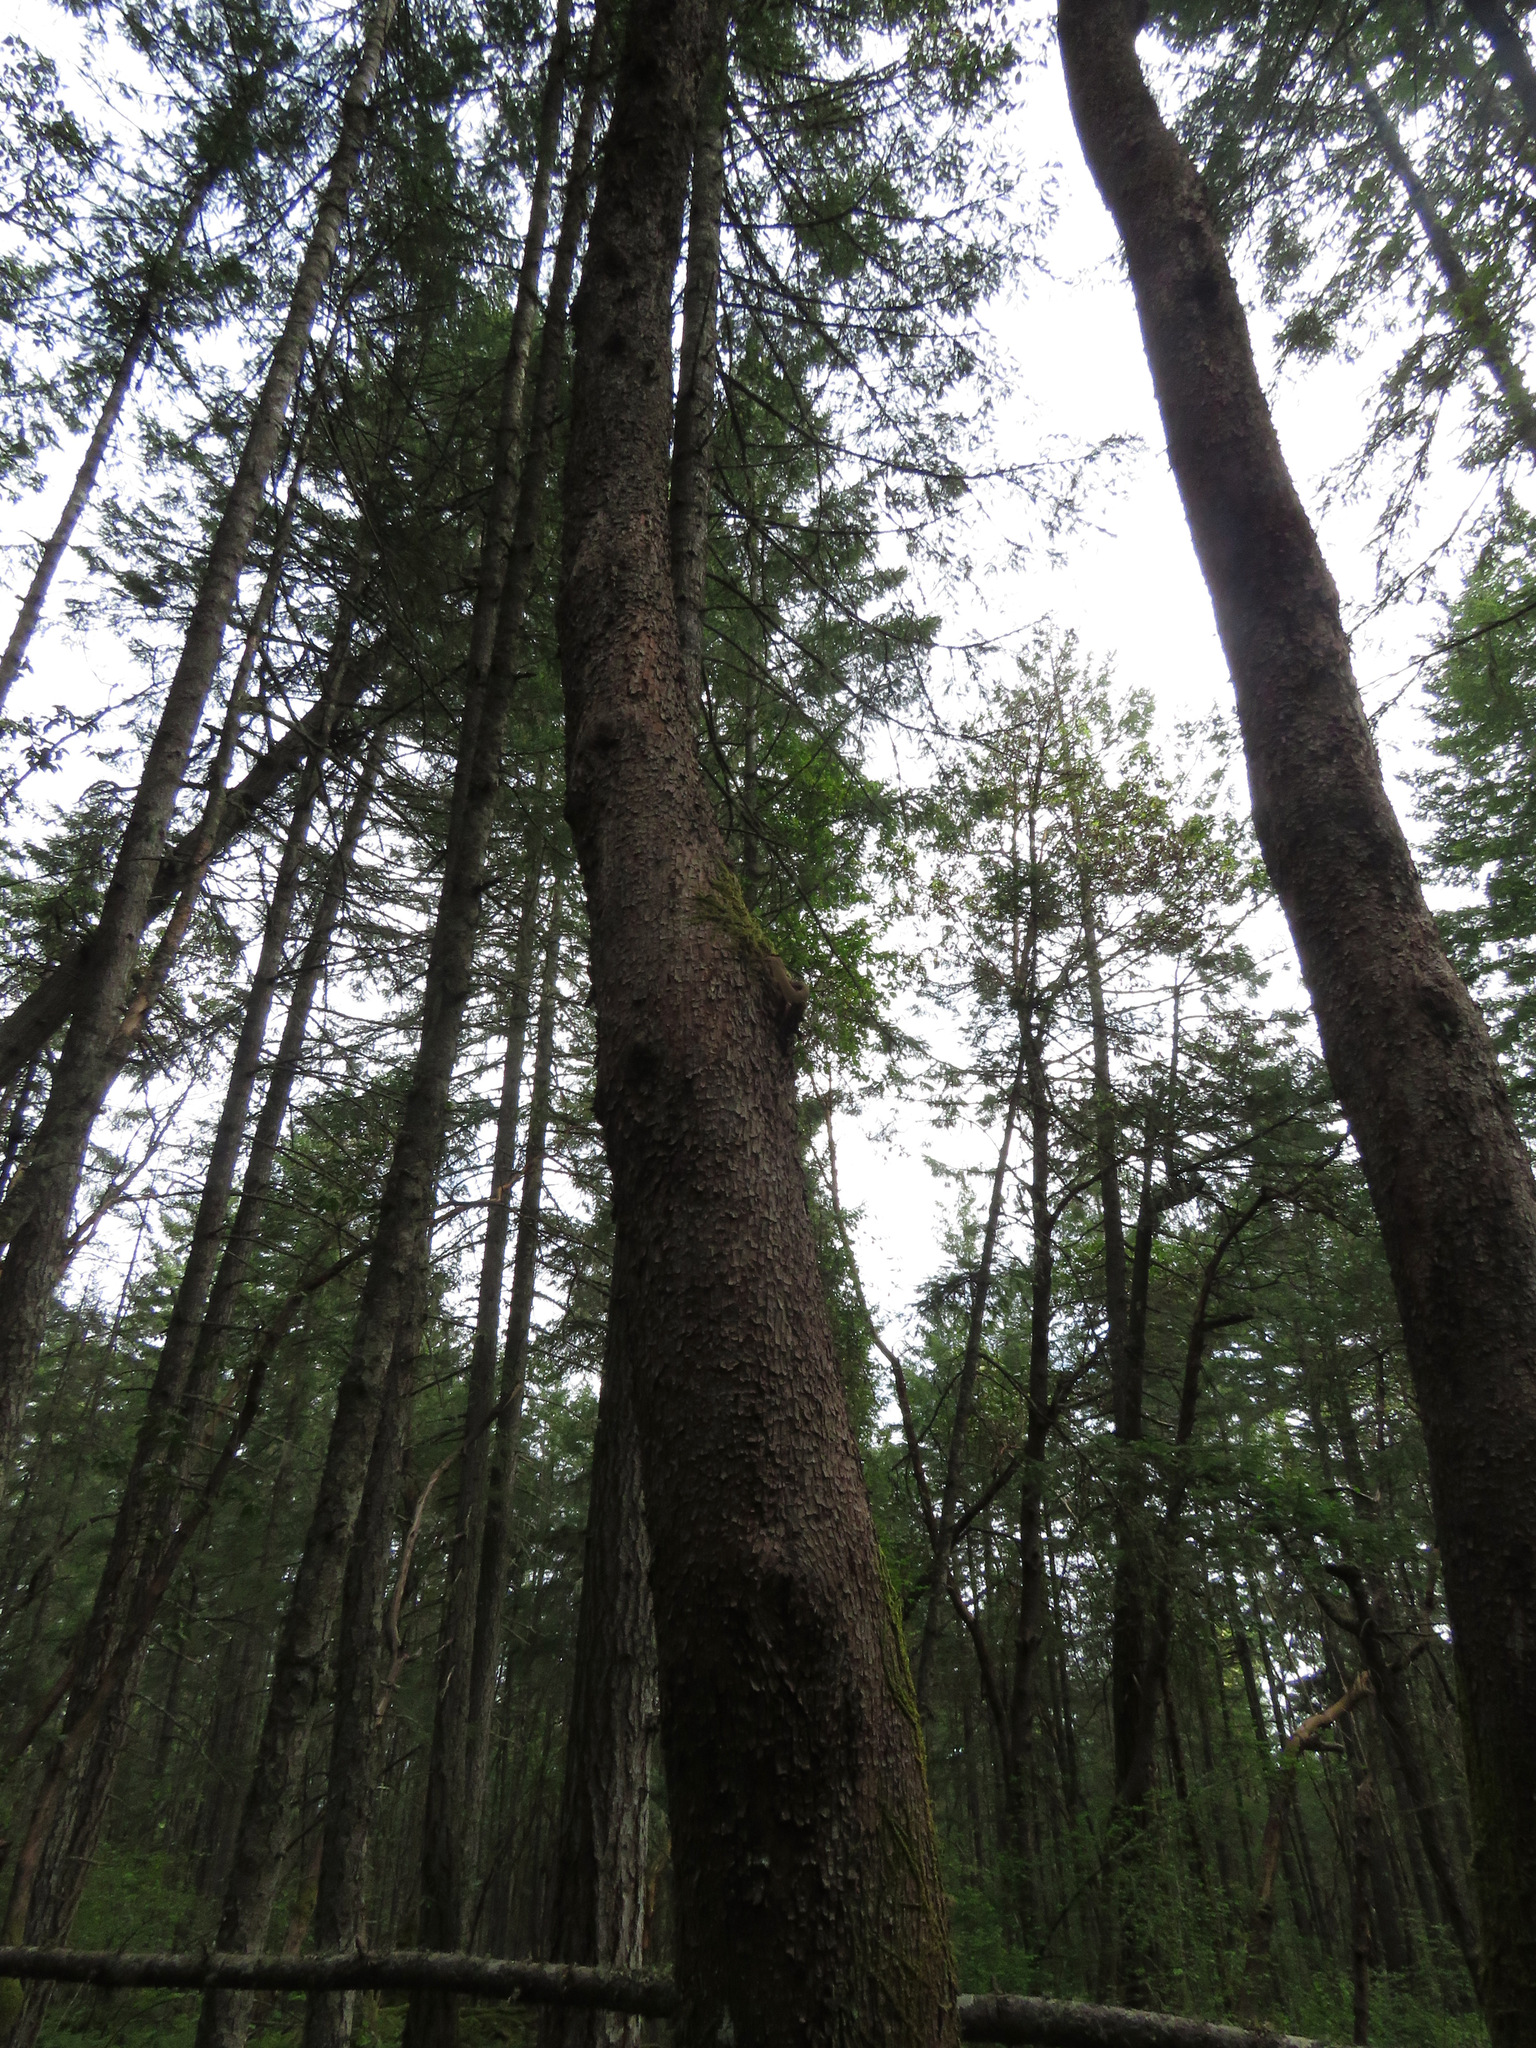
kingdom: Plantae
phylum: Tracheophyta
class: Magnoliopsida
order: Ericales
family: Ericaceae
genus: Arbutus
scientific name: Arbutus menziesii
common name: Pacific madrone
